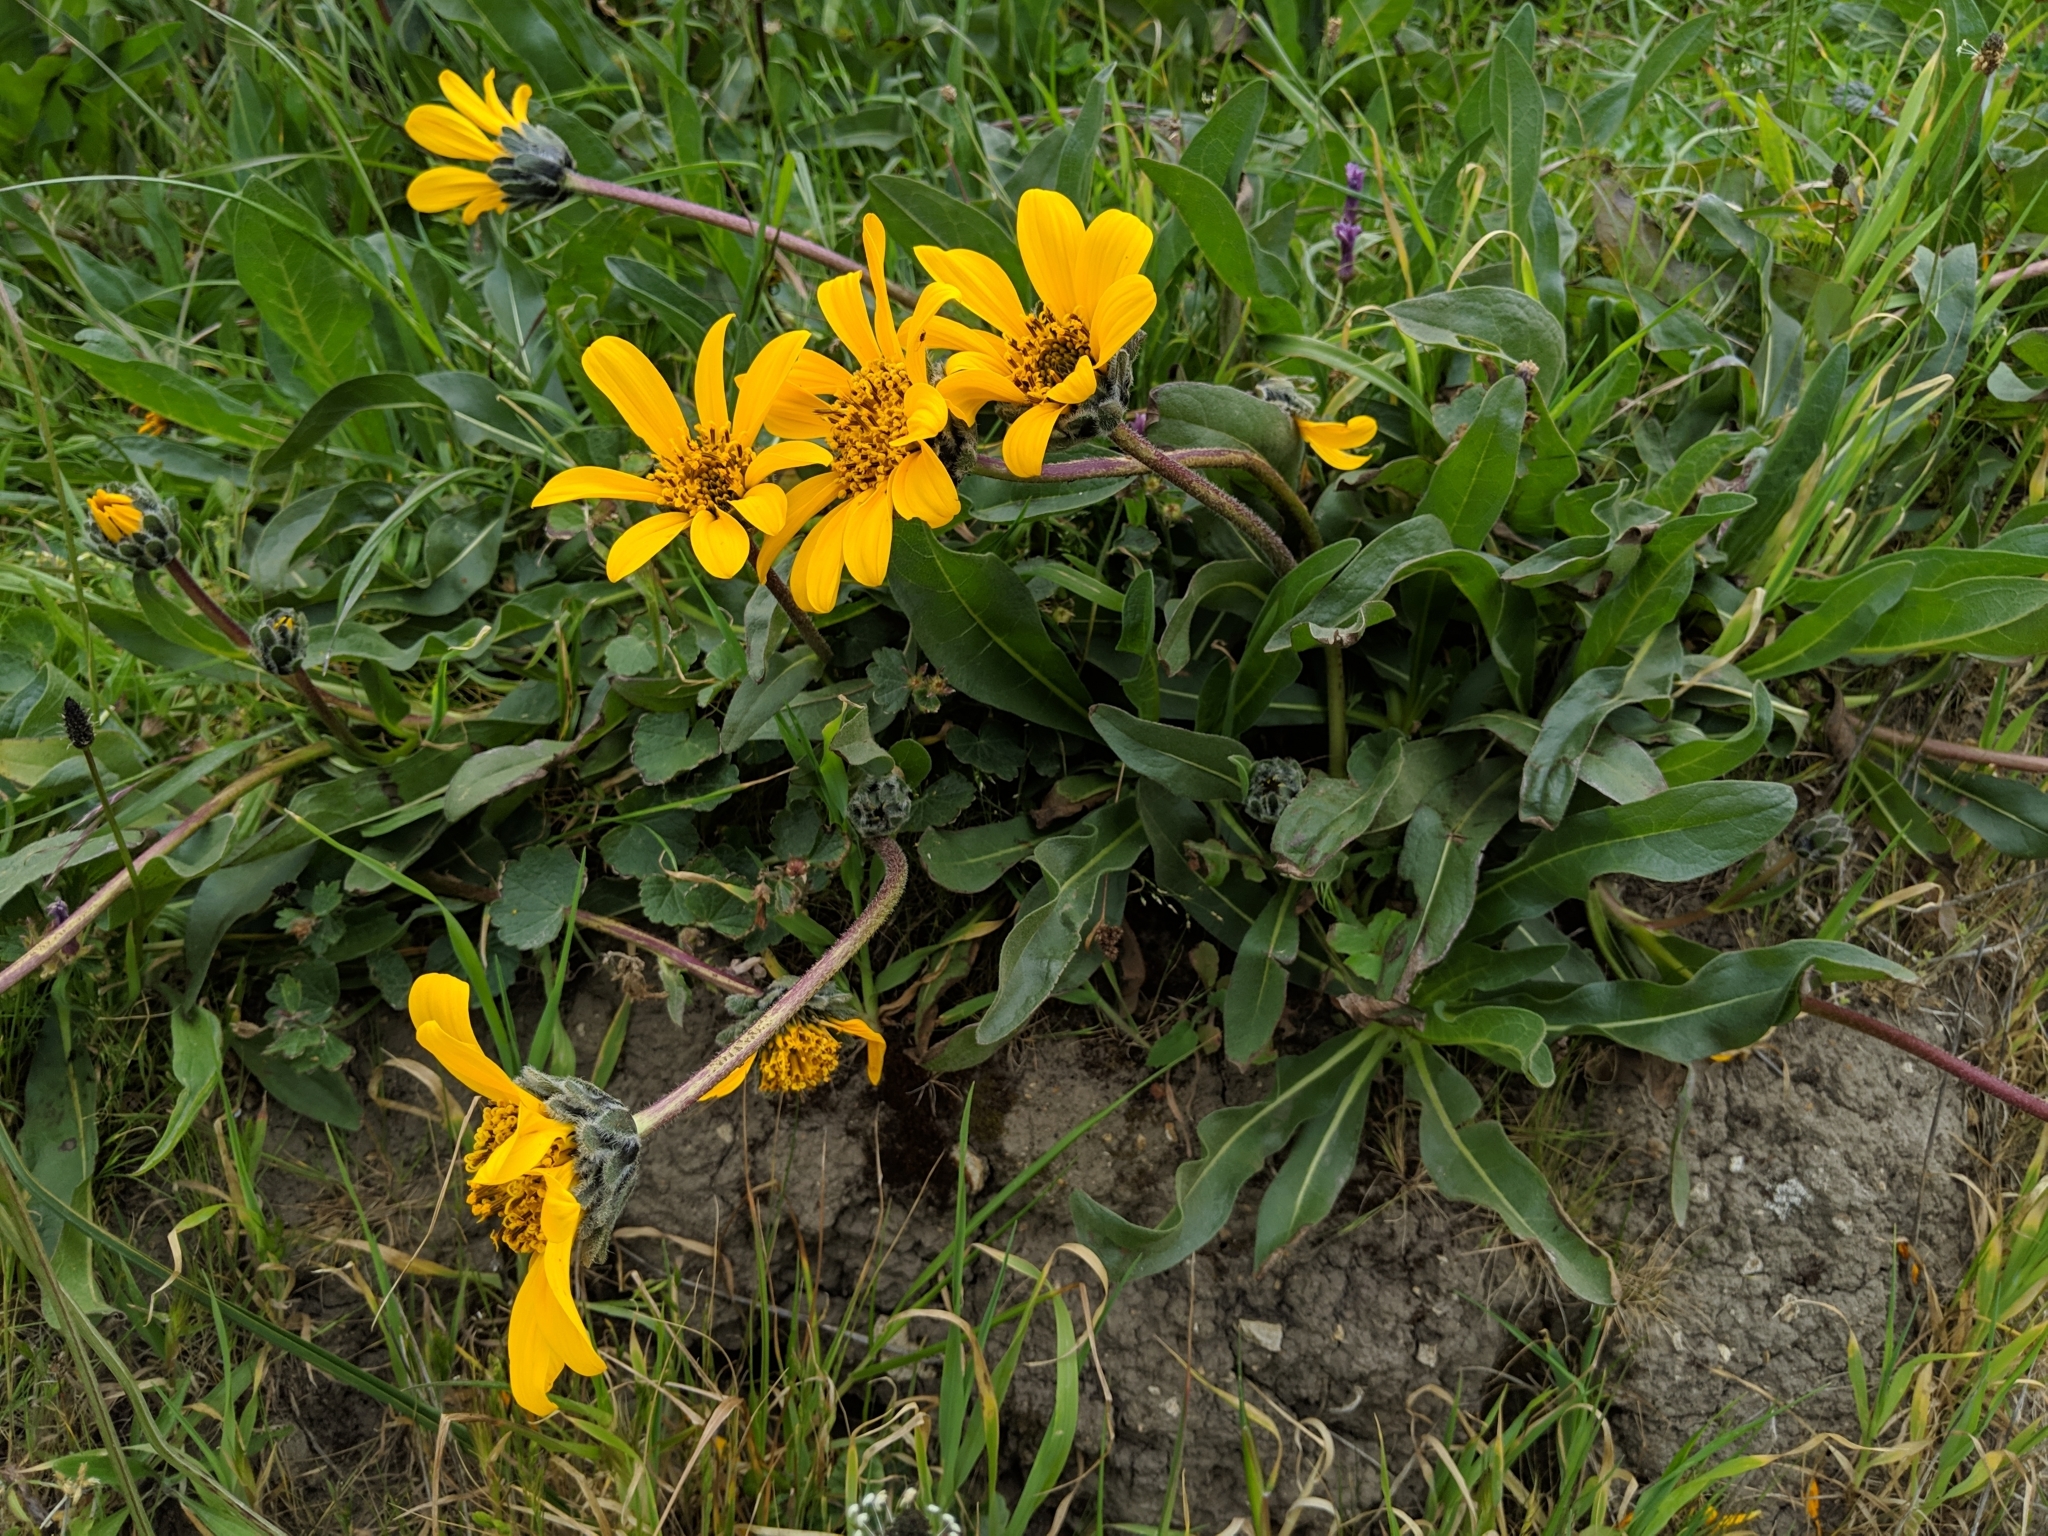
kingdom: Plantae
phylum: Tracheophyta
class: Magnoliopsida
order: Asterales
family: Asteraceae
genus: Wyethia
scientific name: Wyethia angustifolia
